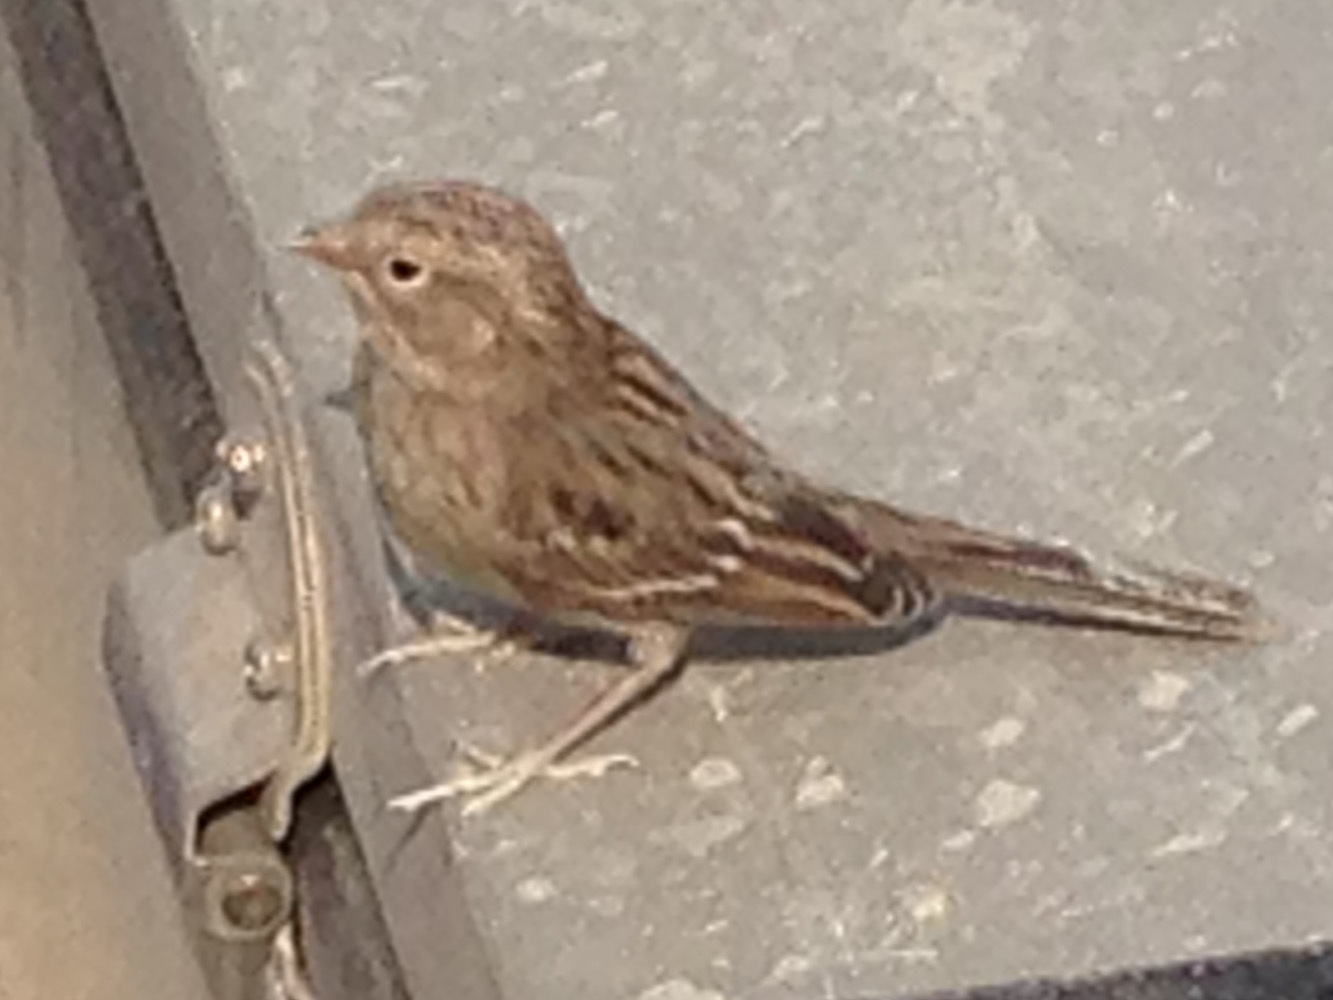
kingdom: Animalia
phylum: Chordata
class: Aves
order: Passeriformes
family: Passerellidae
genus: Spizella
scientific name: Spizella breweri
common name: Brewer's sparrow
